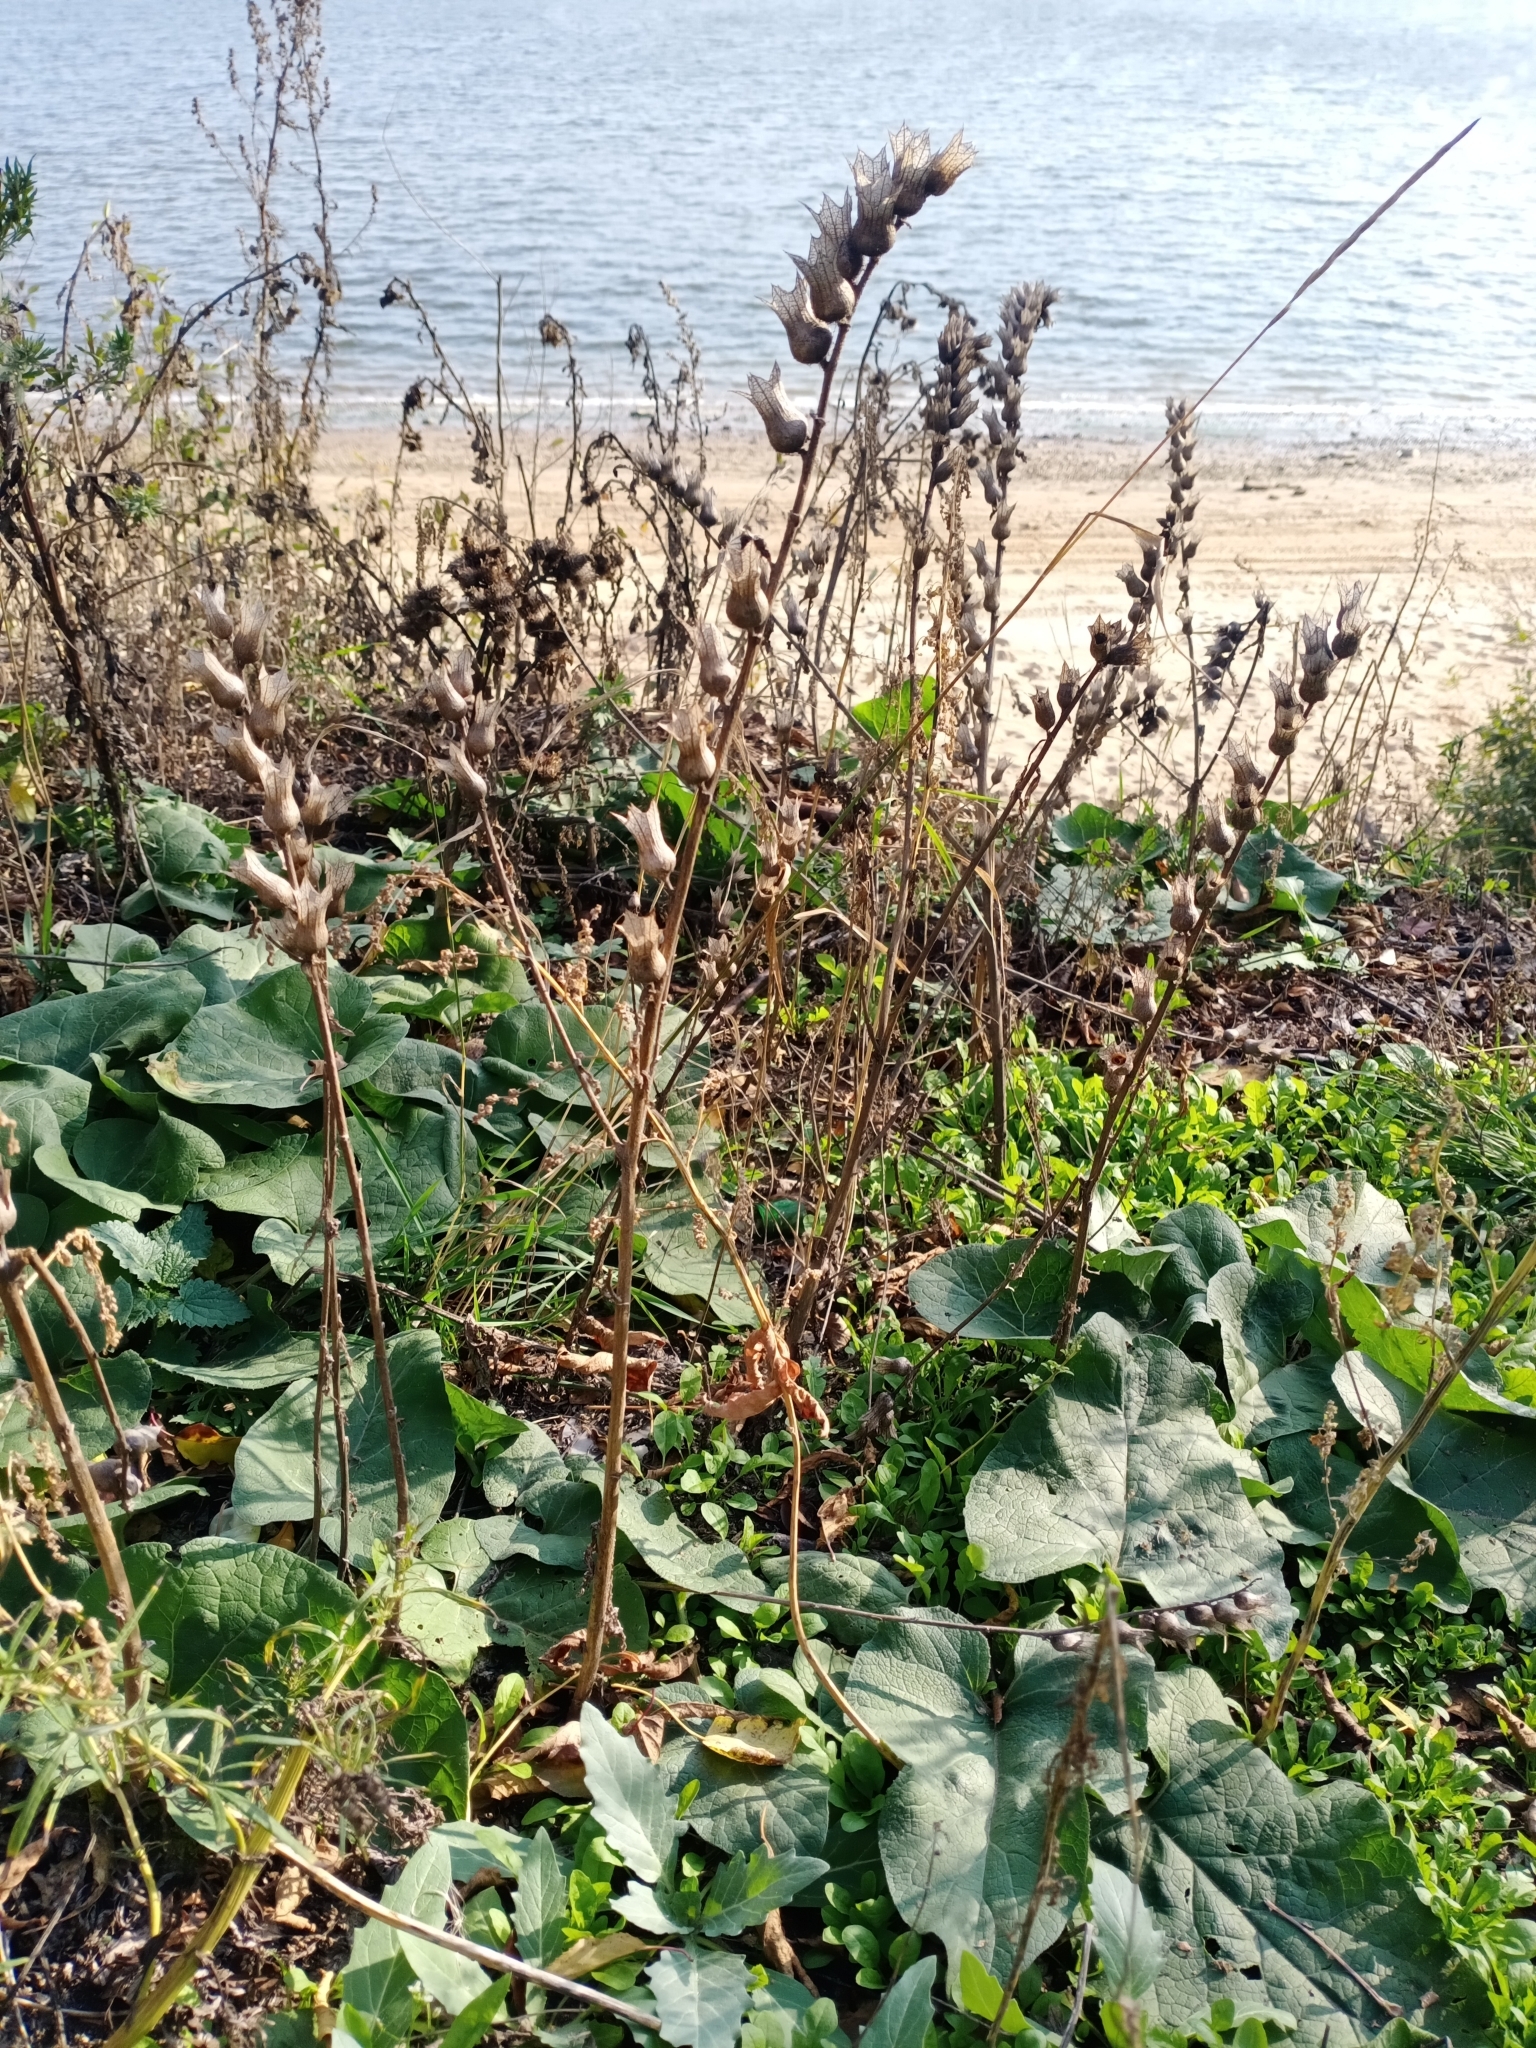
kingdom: Plantae
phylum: Tracheophyta
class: Magnoliopsida
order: Solanales
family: Solanaceae
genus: Hyoscyamus
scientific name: Hyoscyamus niger
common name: Henbane
